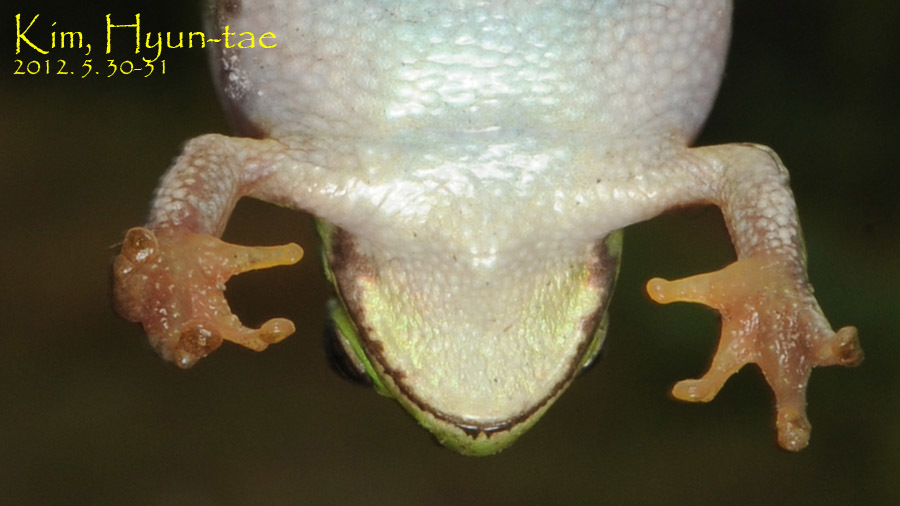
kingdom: Animalia
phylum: Chordata
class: Amphibia
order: Anura
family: Hylidae
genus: Dryophytes
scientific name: Dryophytes immaculatus
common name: North china treefrog
